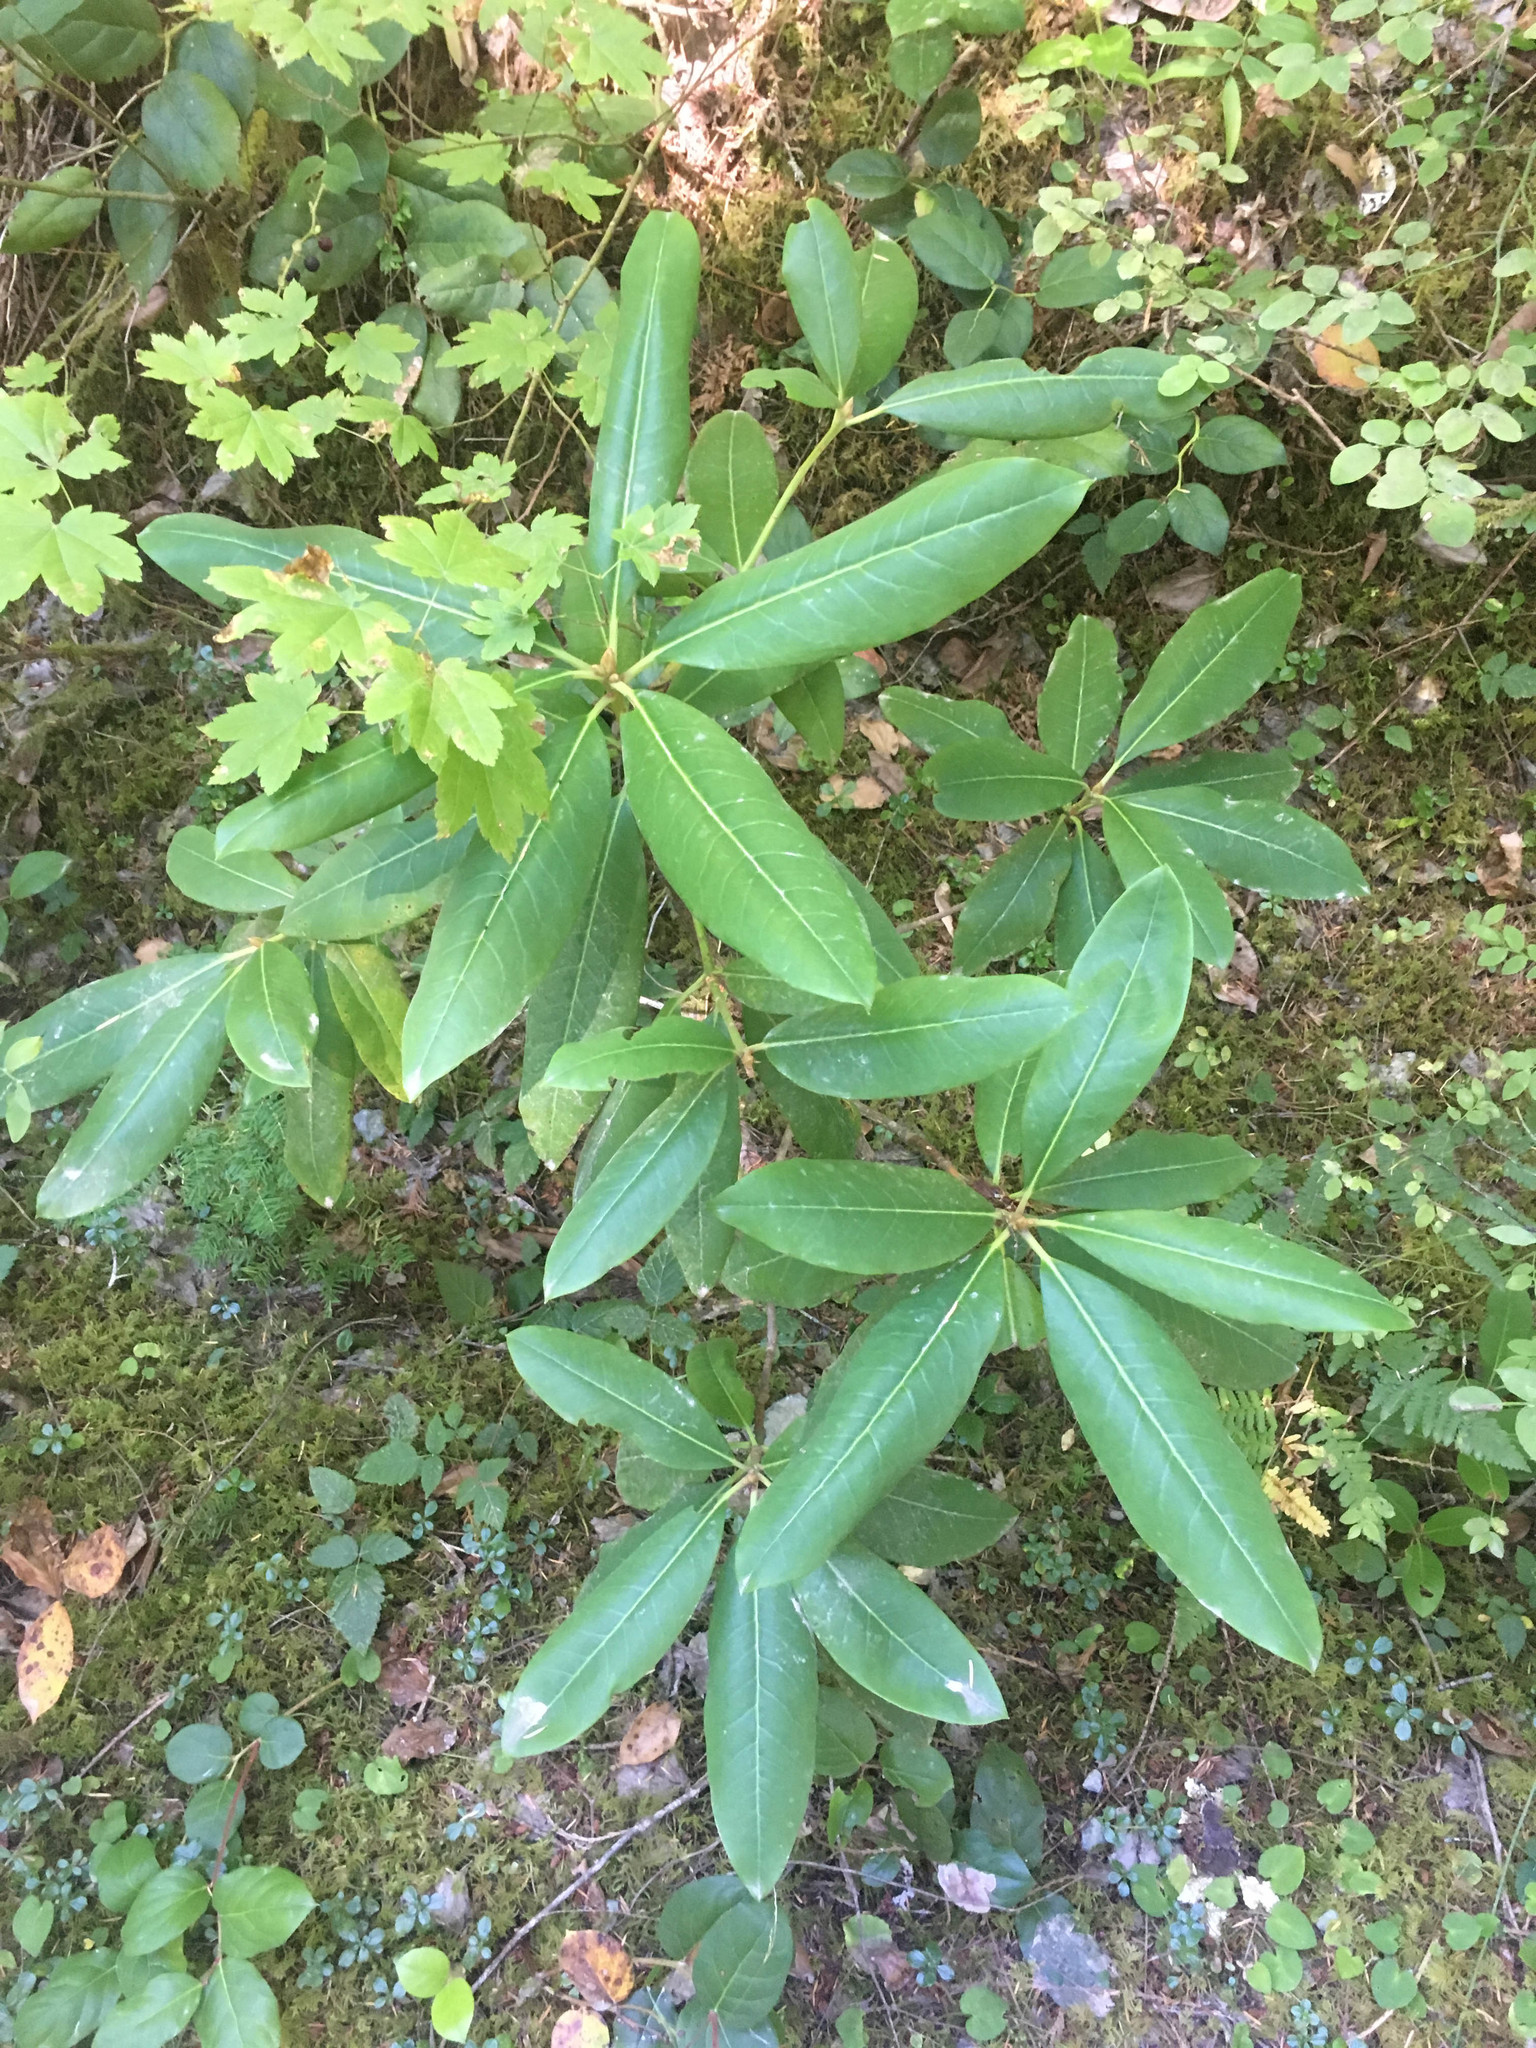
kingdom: Plantae
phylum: Tracheophyta
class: Magnoliopsida
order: Ericales
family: Ericaceae
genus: Rhododendron
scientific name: Rhododendron macrophyllum
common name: California rose bay
